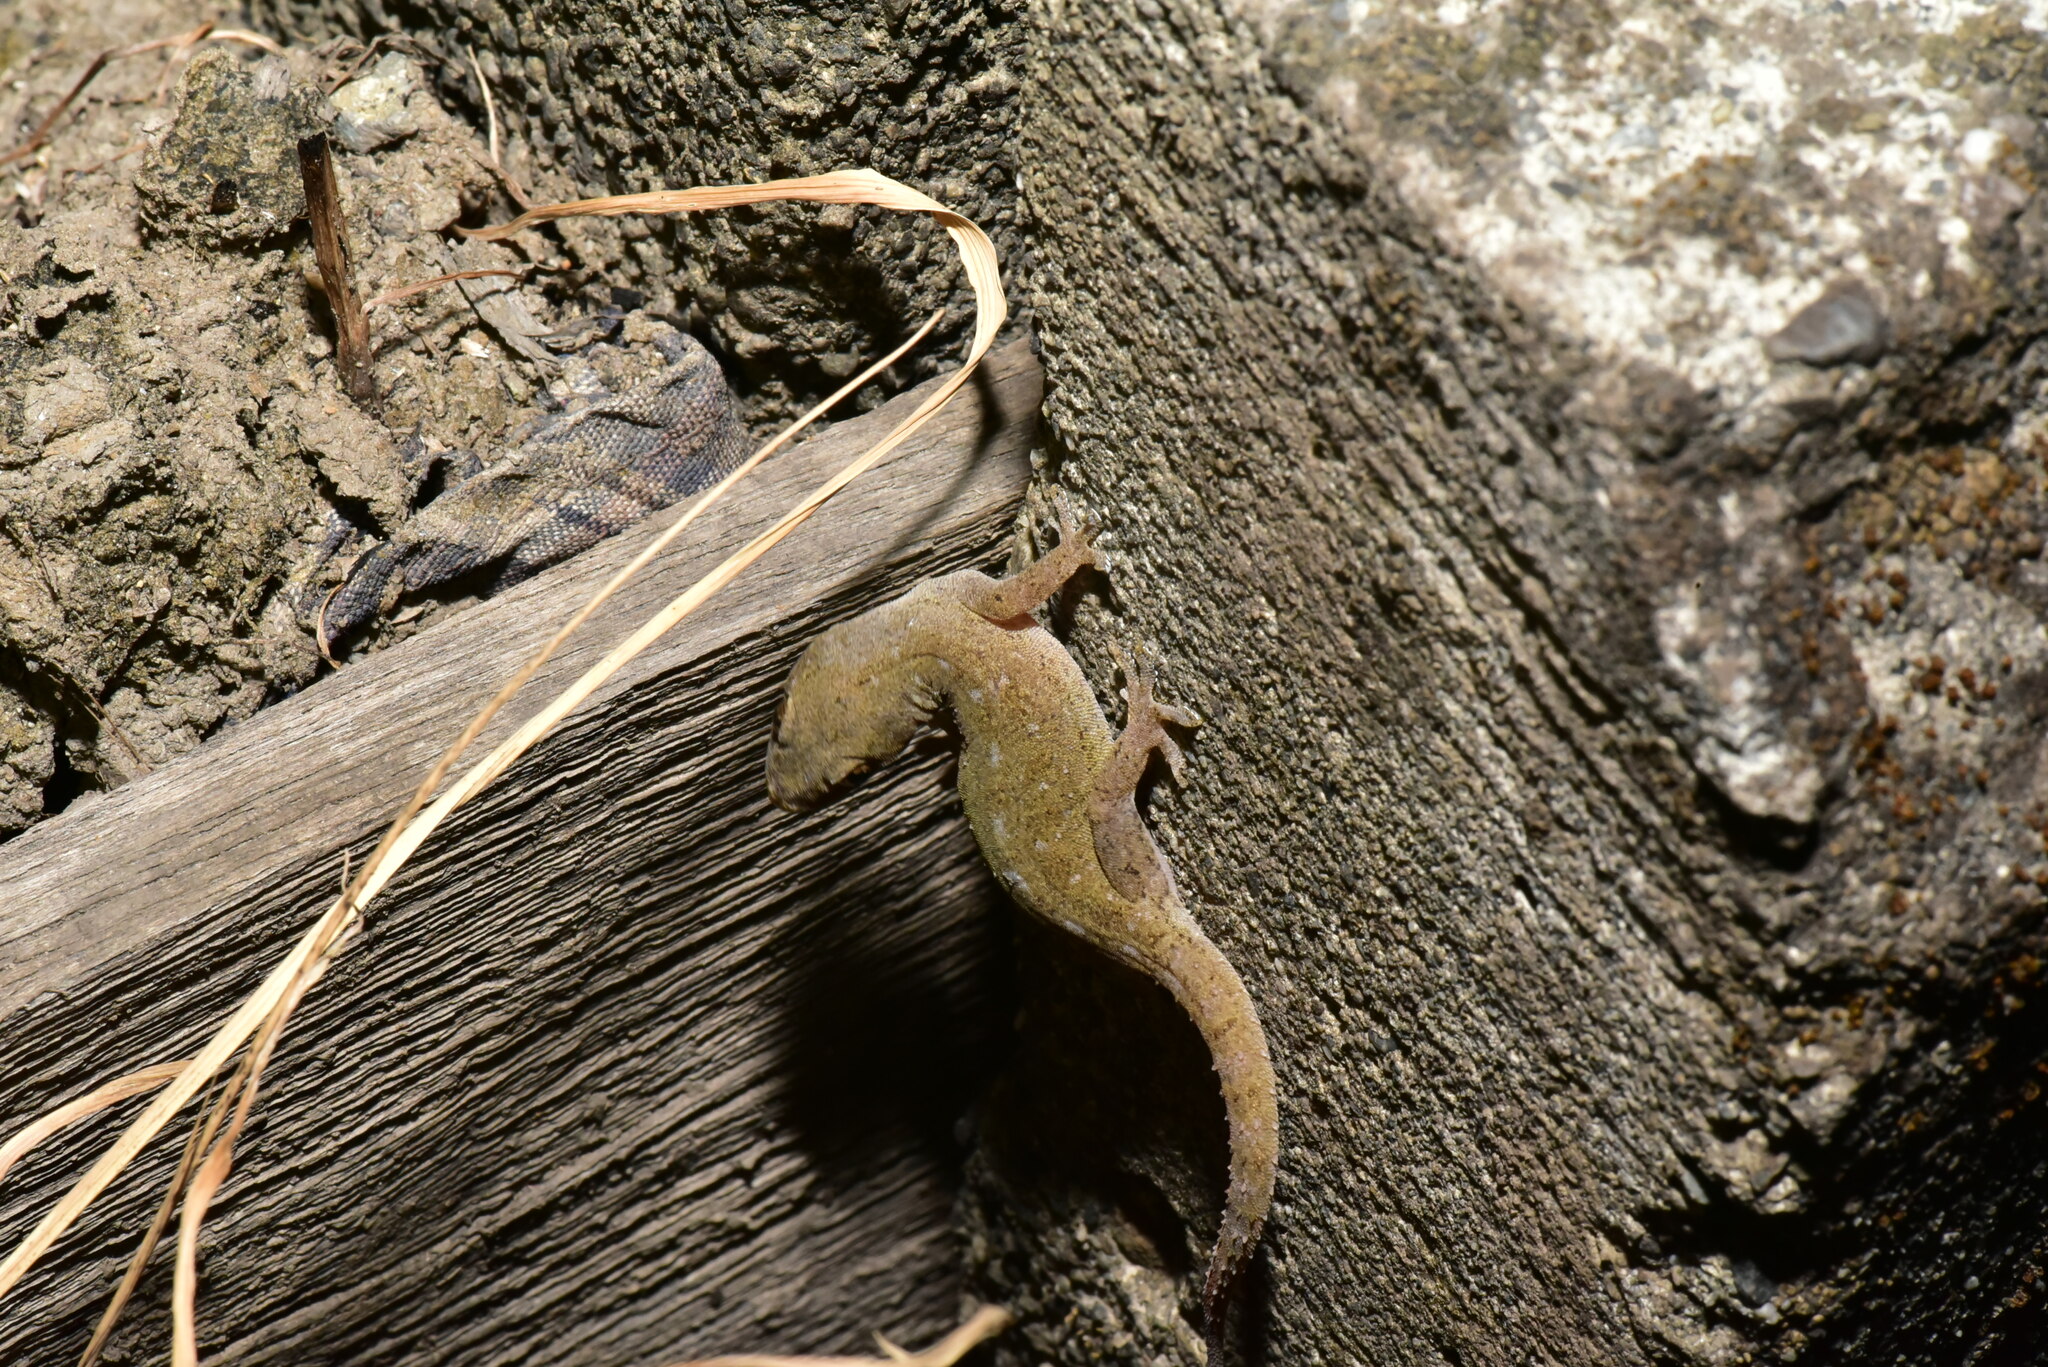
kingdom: Animalia
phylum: Chordata
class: Squamata
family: Gekkonidae
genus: Hemidactylus
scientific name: Hemidactylus frenatus
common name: Common house gecko
